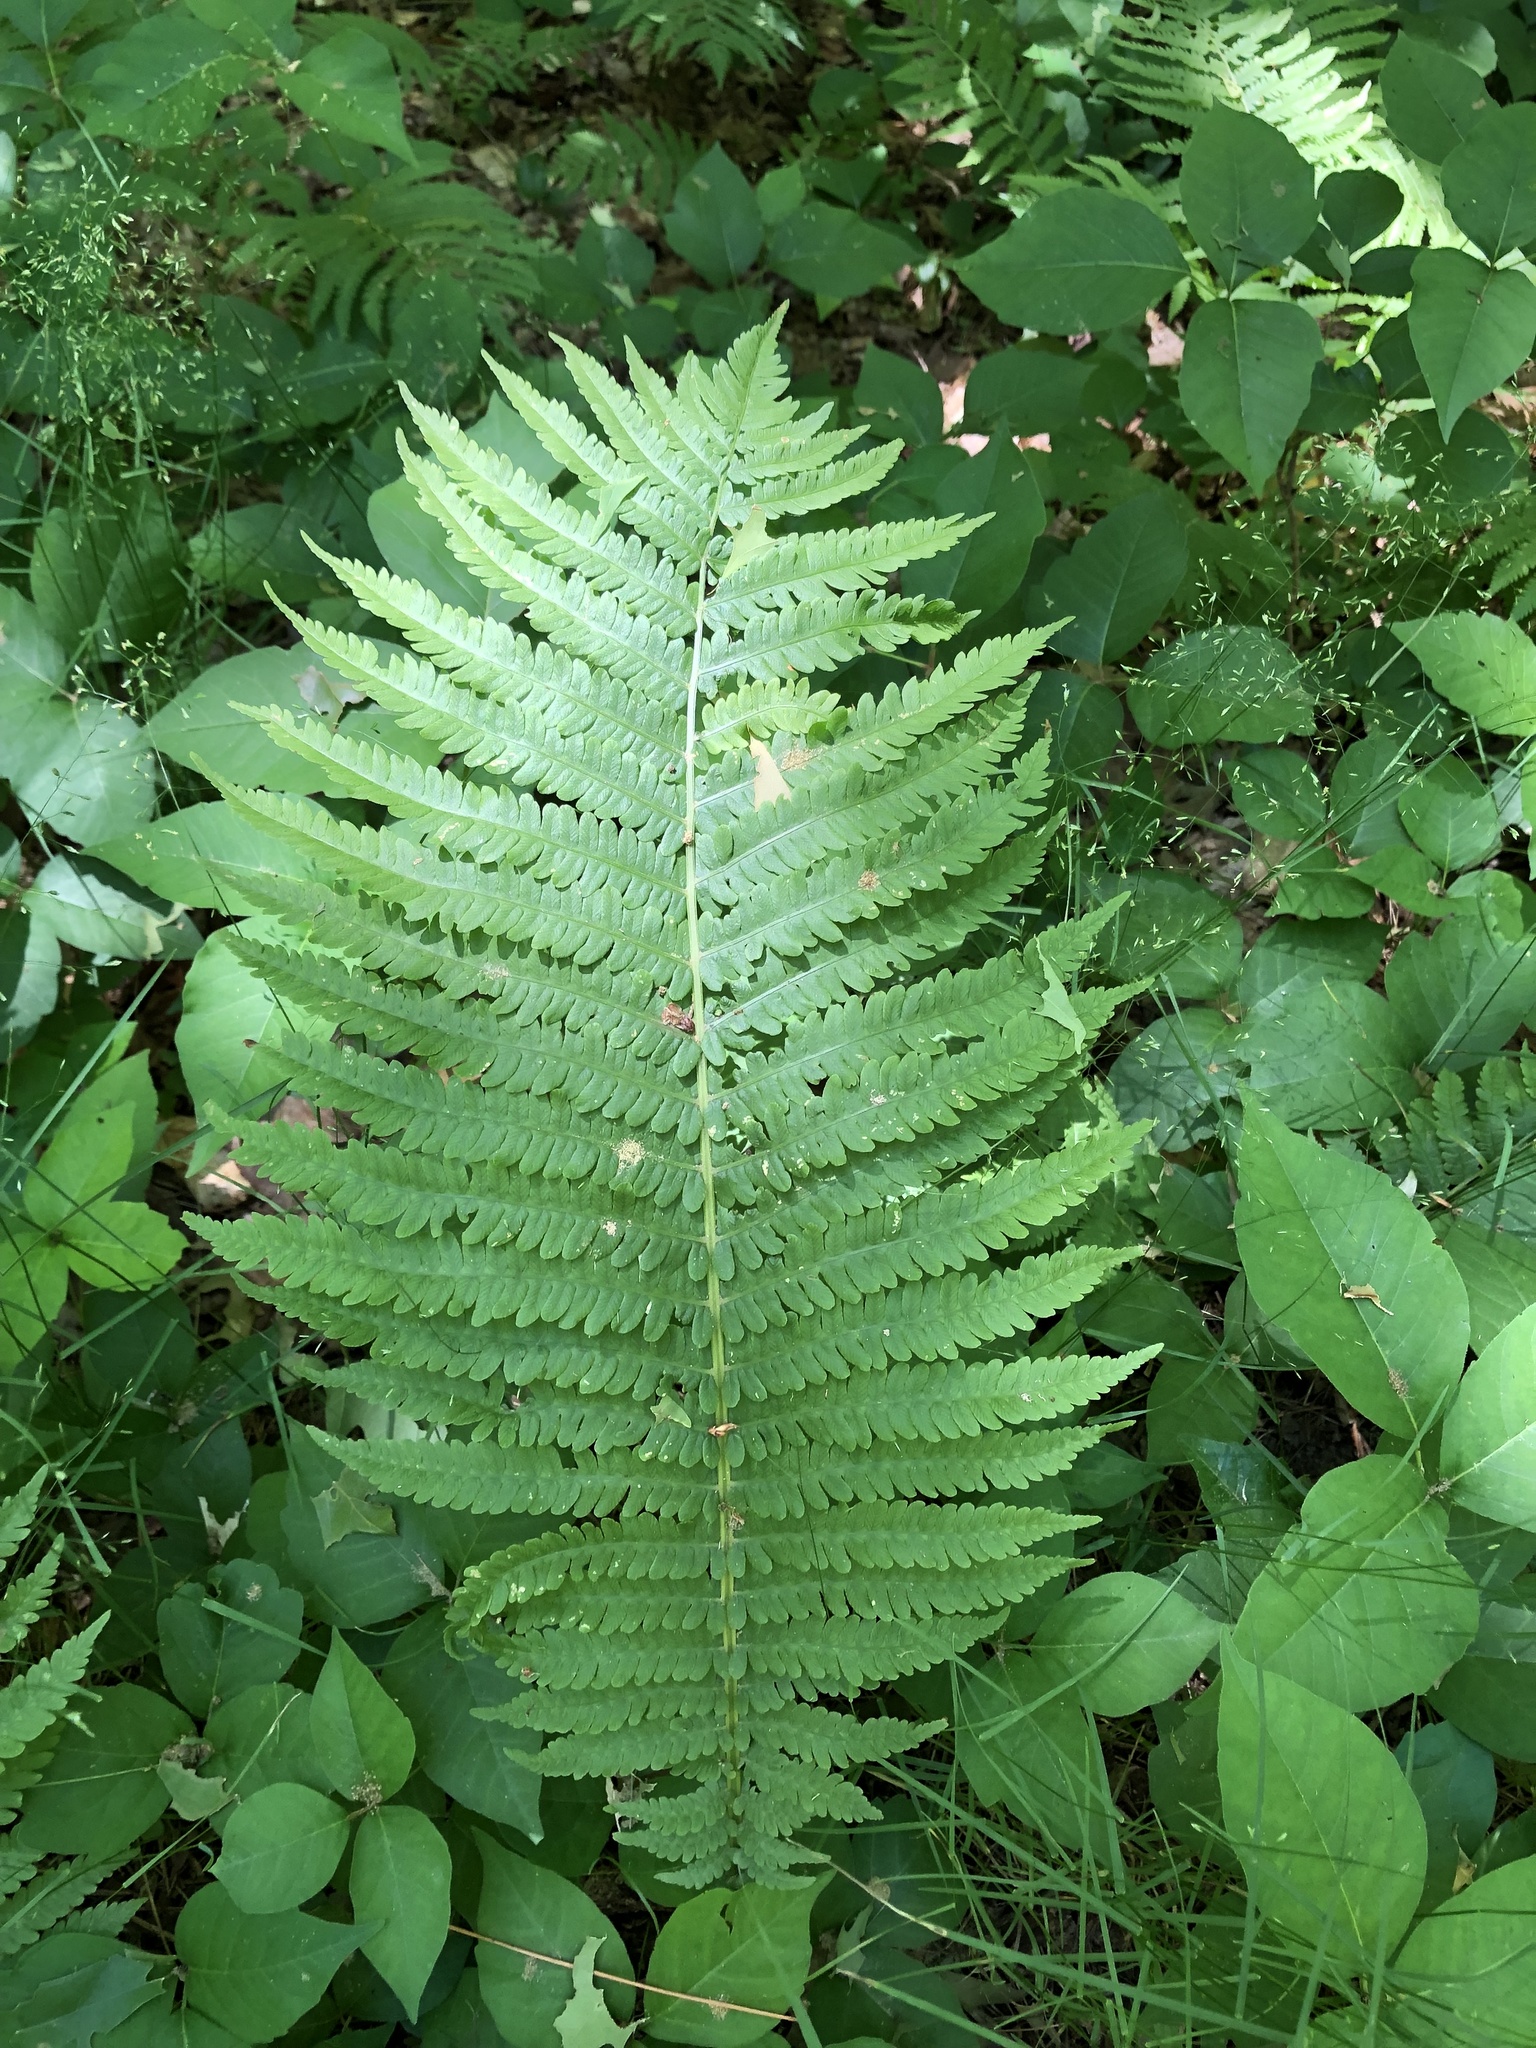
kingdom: Plantae
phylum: Tracheophyta
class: Polypodiopsida
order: Polypodiales
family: Onocleaceae
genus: Matteuccia
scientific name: Matteuccia struthiopteris
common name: Ostrich fern
